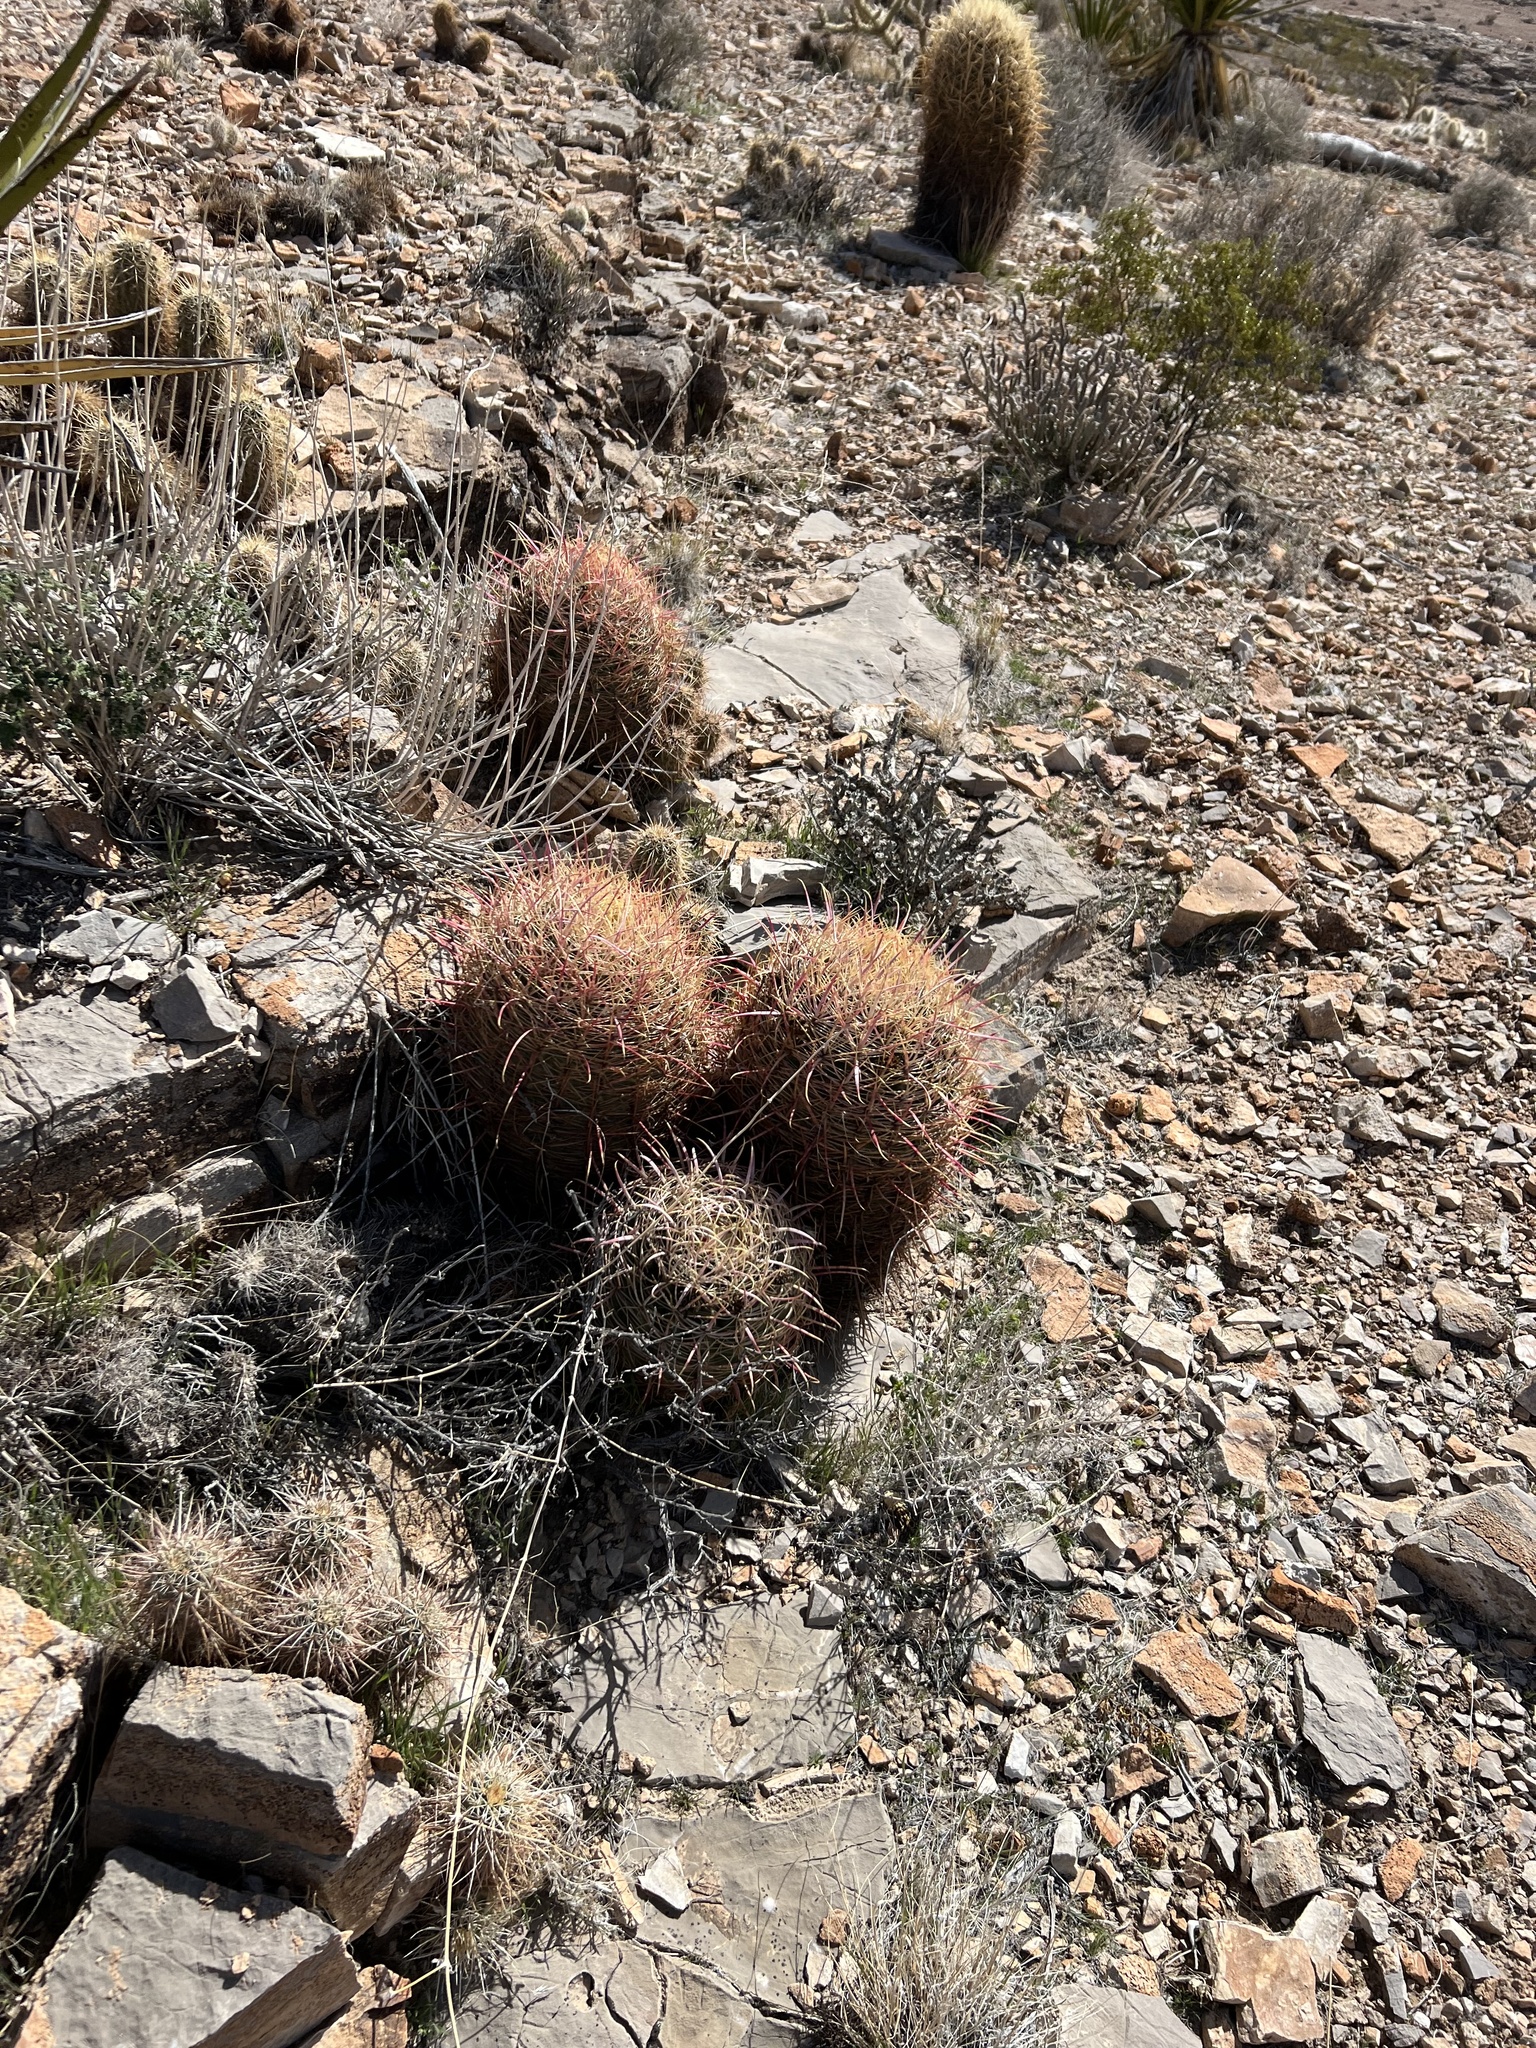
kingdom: Plantae
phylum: Tracheophyta
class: Magnoliopsida
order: Caryophyllales
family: Cactaceae
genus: Ferocactus
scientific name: Ferocactus cylindraceus
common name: California barrel cactus
